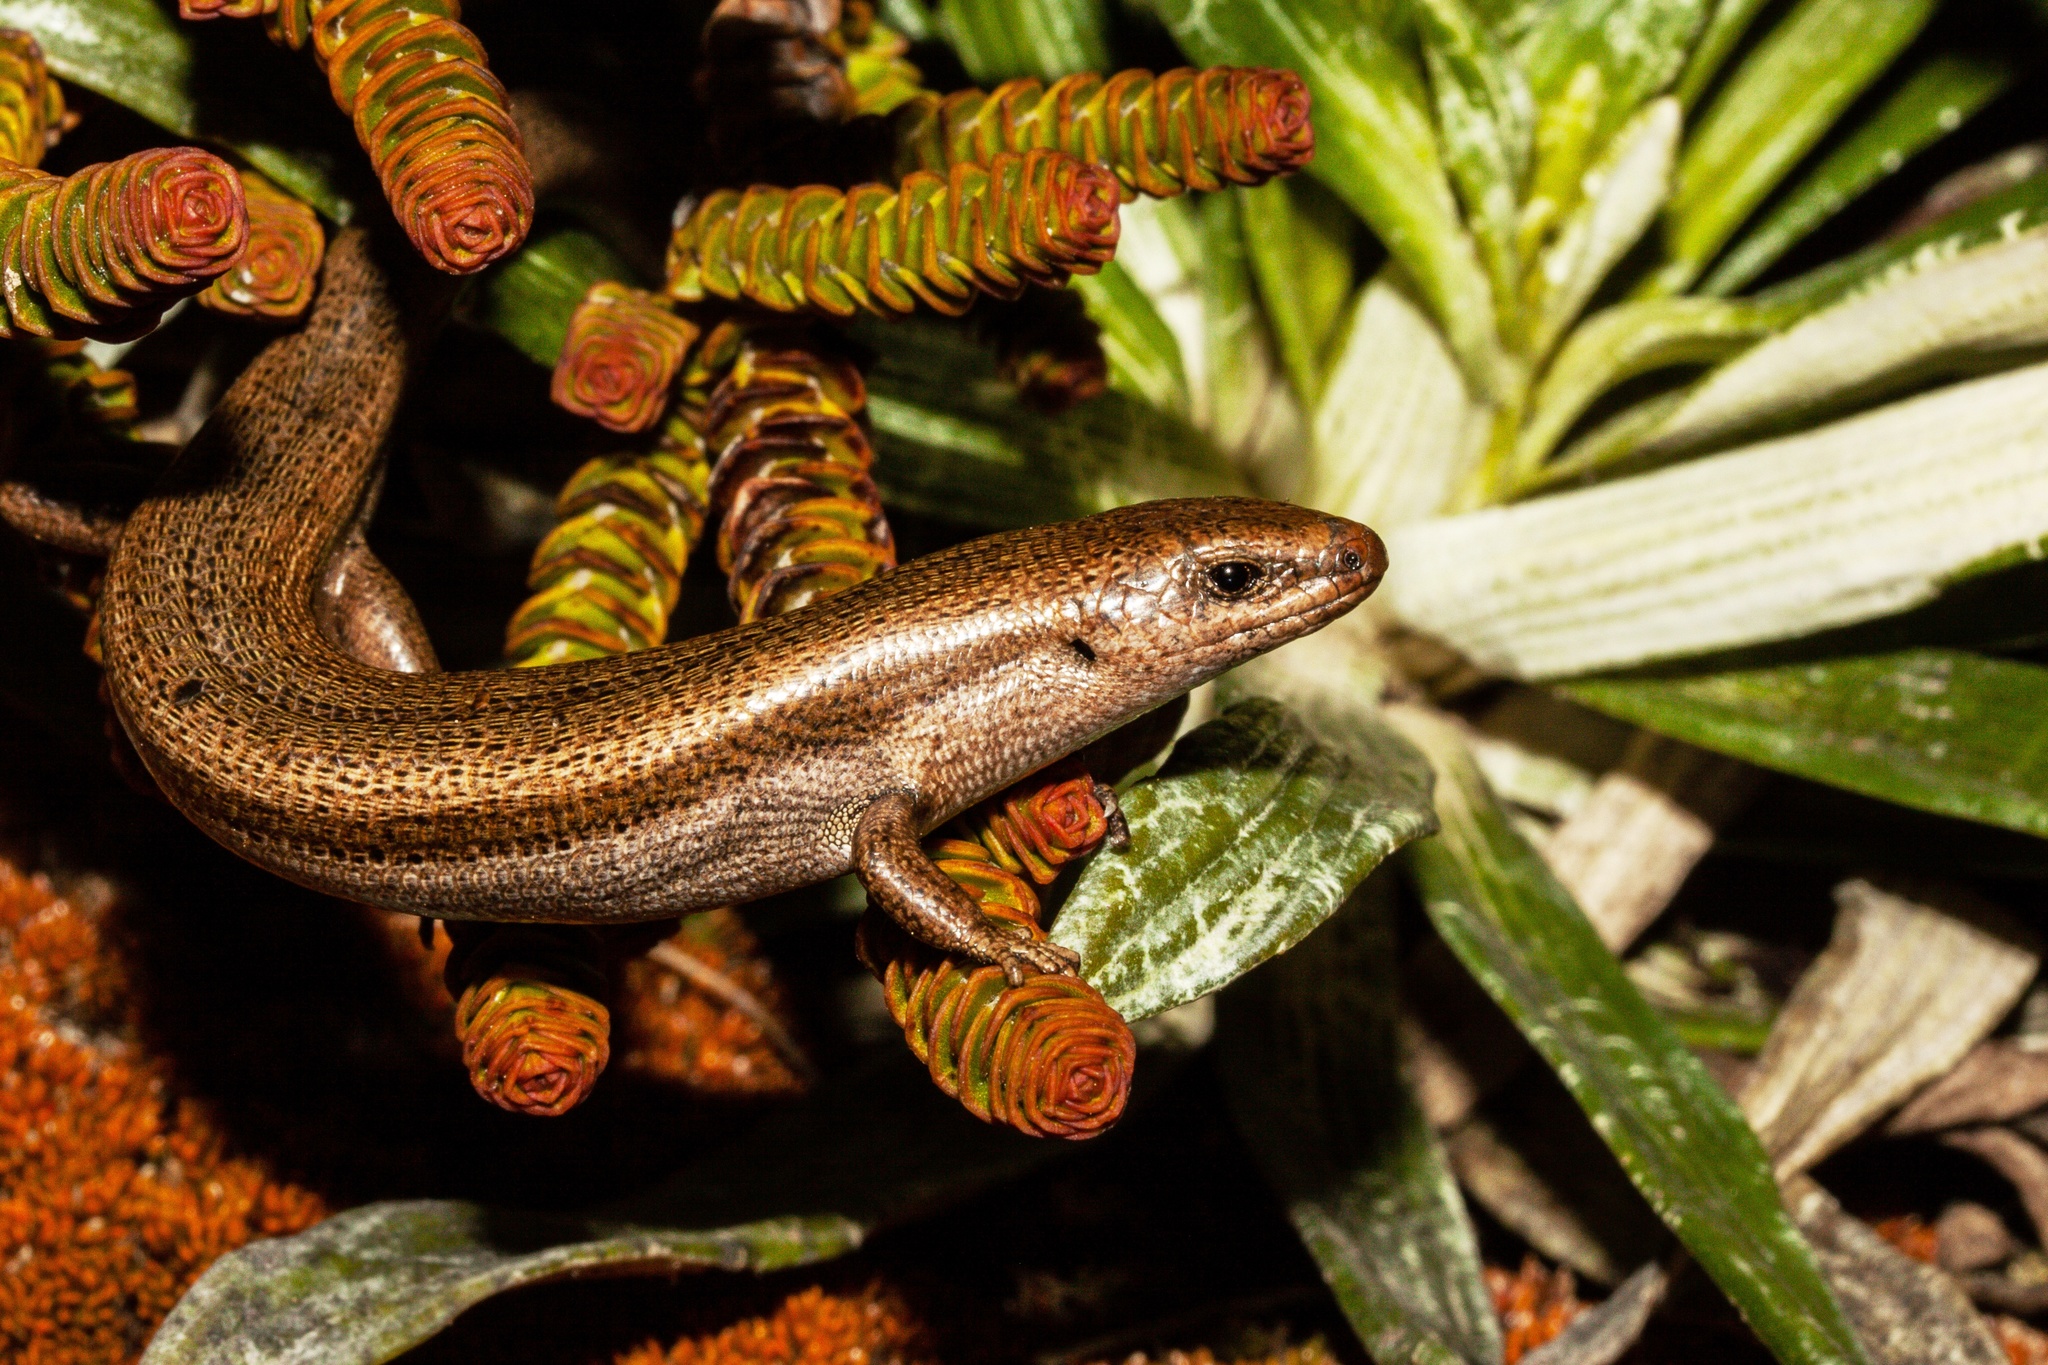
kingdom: Animalia
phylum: Chordata
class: Squamata
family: Scincidae
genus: Oligosoma
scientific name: Oligosoma polychroma
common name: Common new zealand skink
